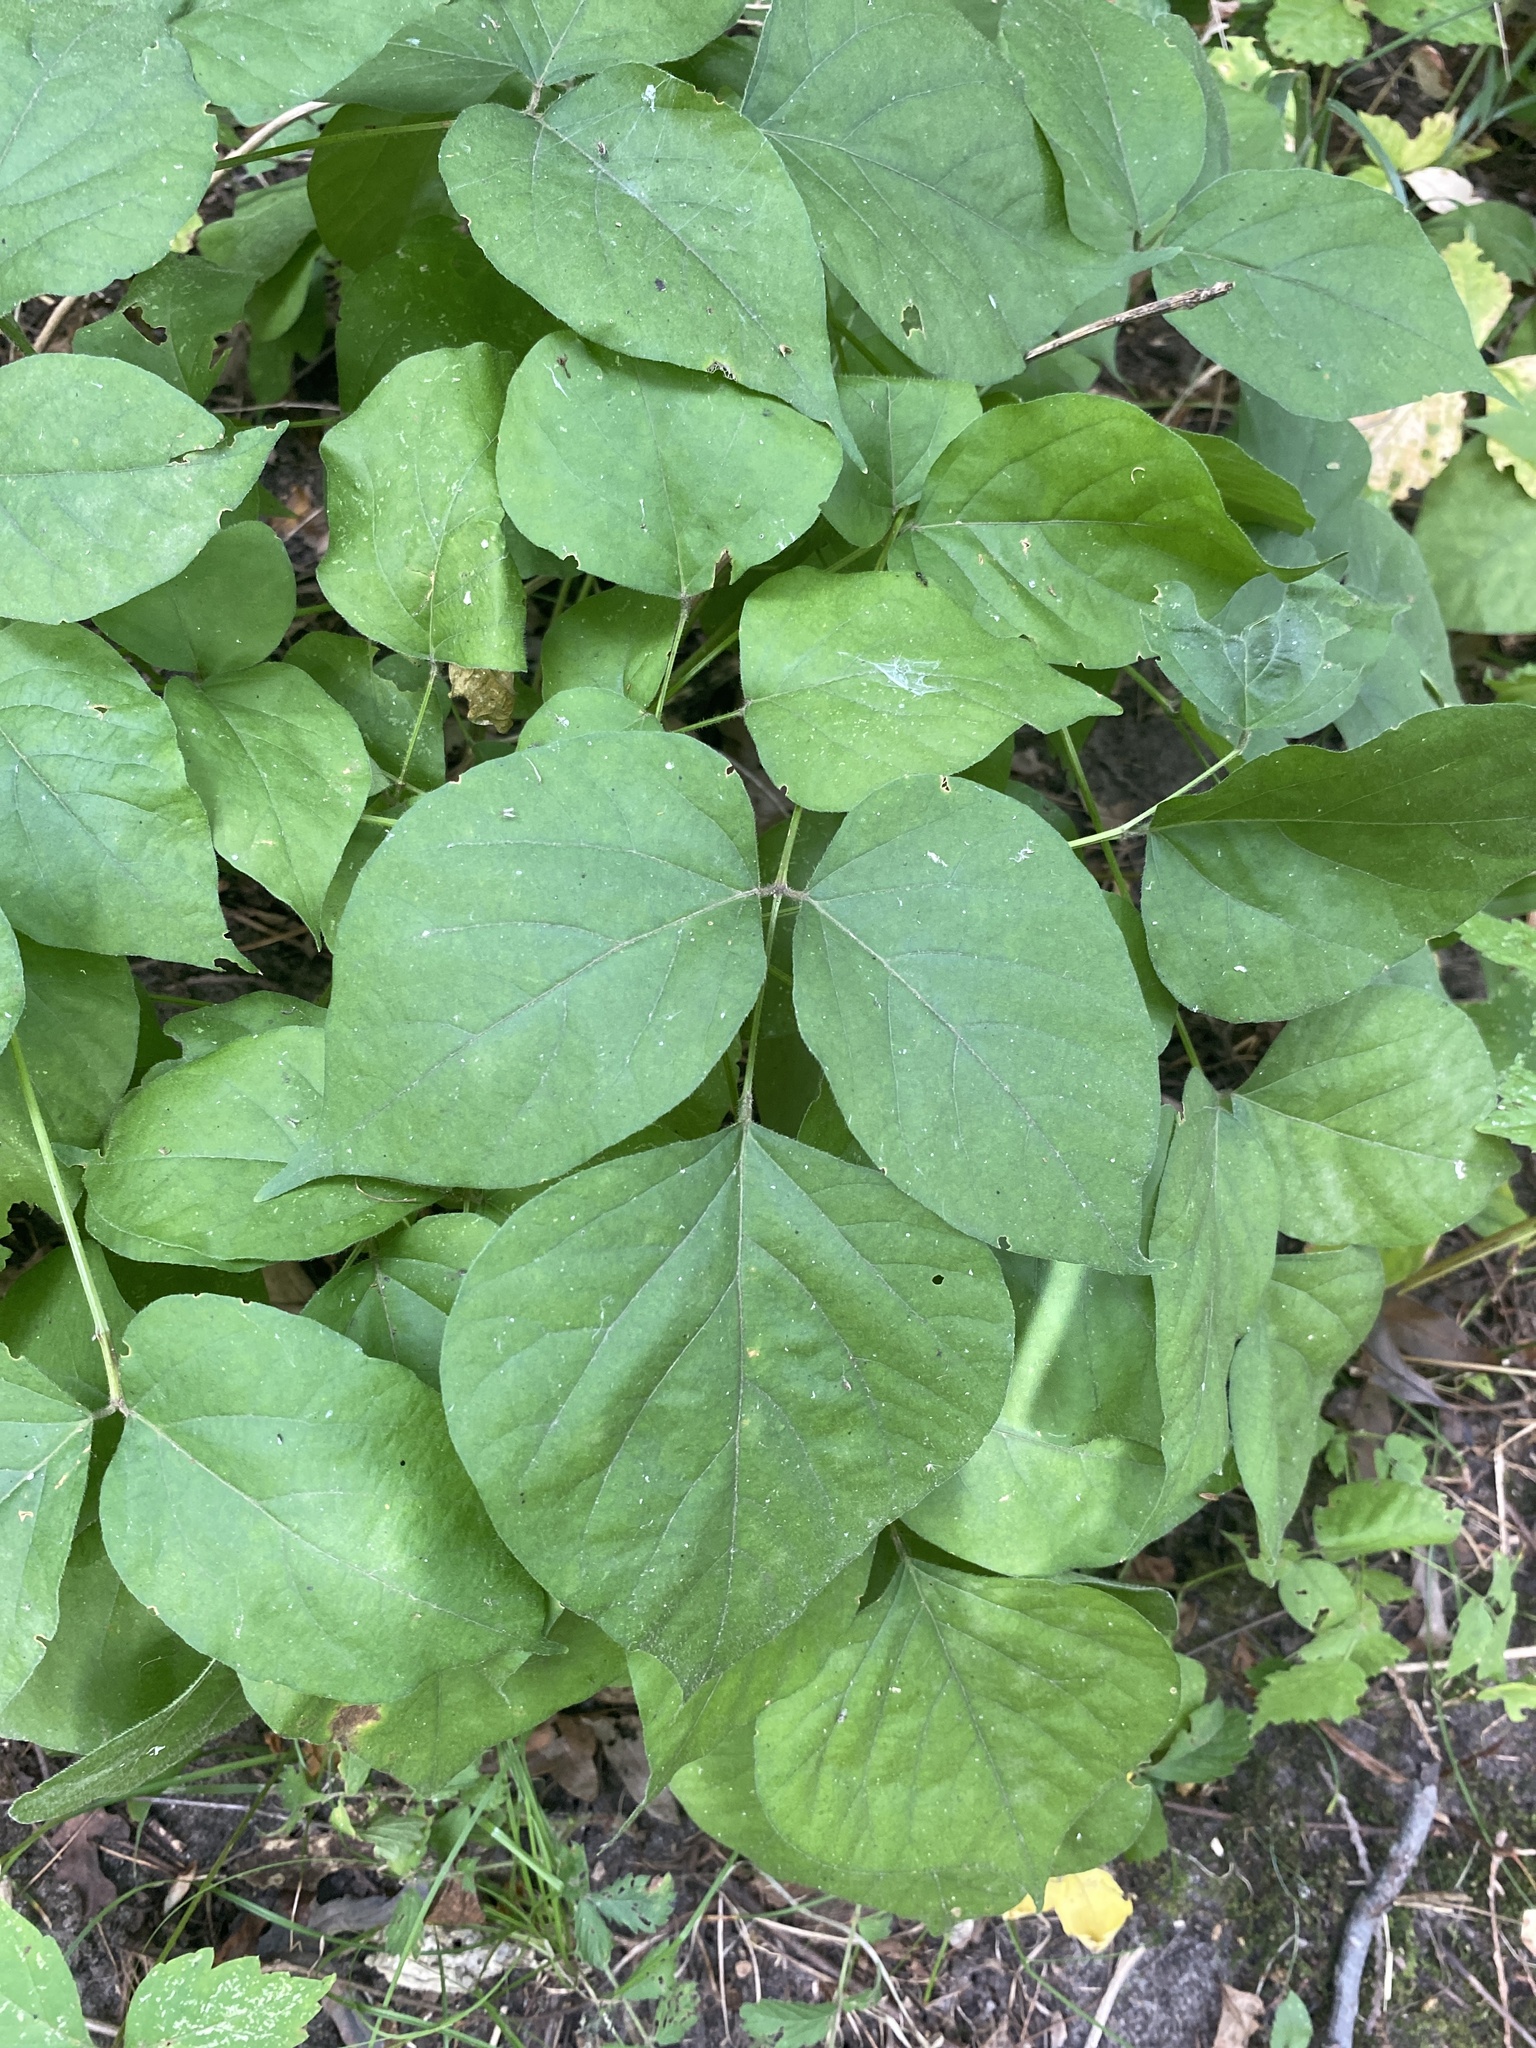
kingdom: Plantae
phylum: Tracheophyta
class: Magnoliopsida
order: Fabales
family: Fabaceae
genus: Hylodesmum
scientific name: Hylodesmum glutinosum
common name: Clustered-leaved tick-trefoil
